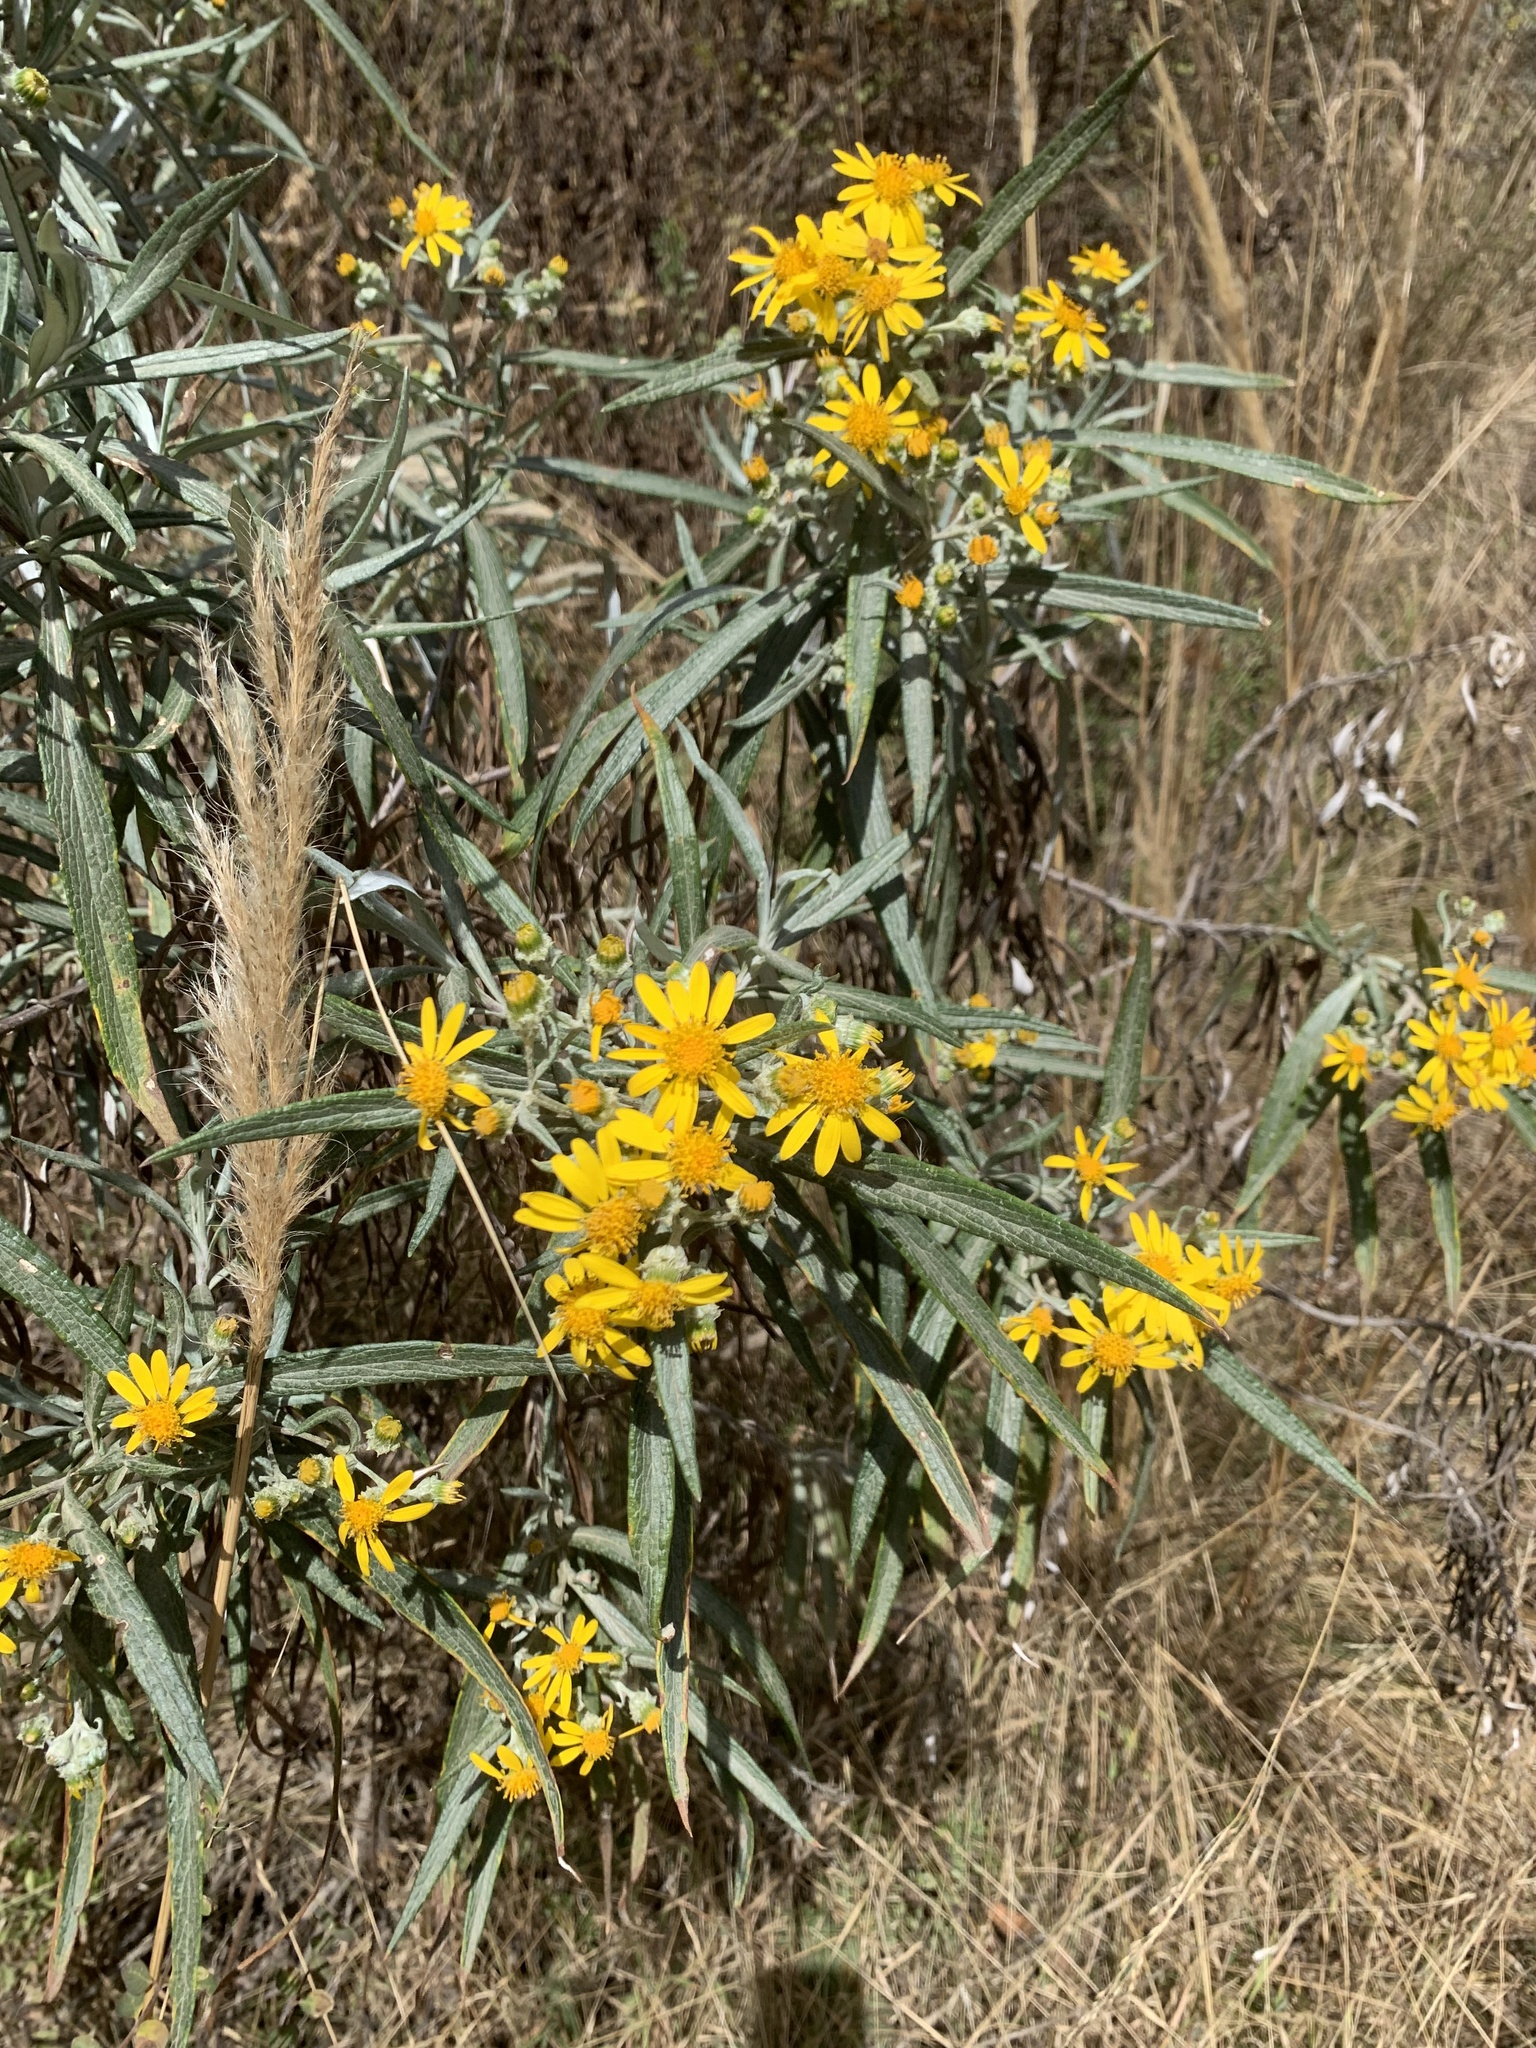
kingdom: Plantae
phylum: Tracheophyta
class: Magnoliopsida
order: Asterales
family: Asteraceae
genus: Senecio
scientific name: Senecio cinerarioides
